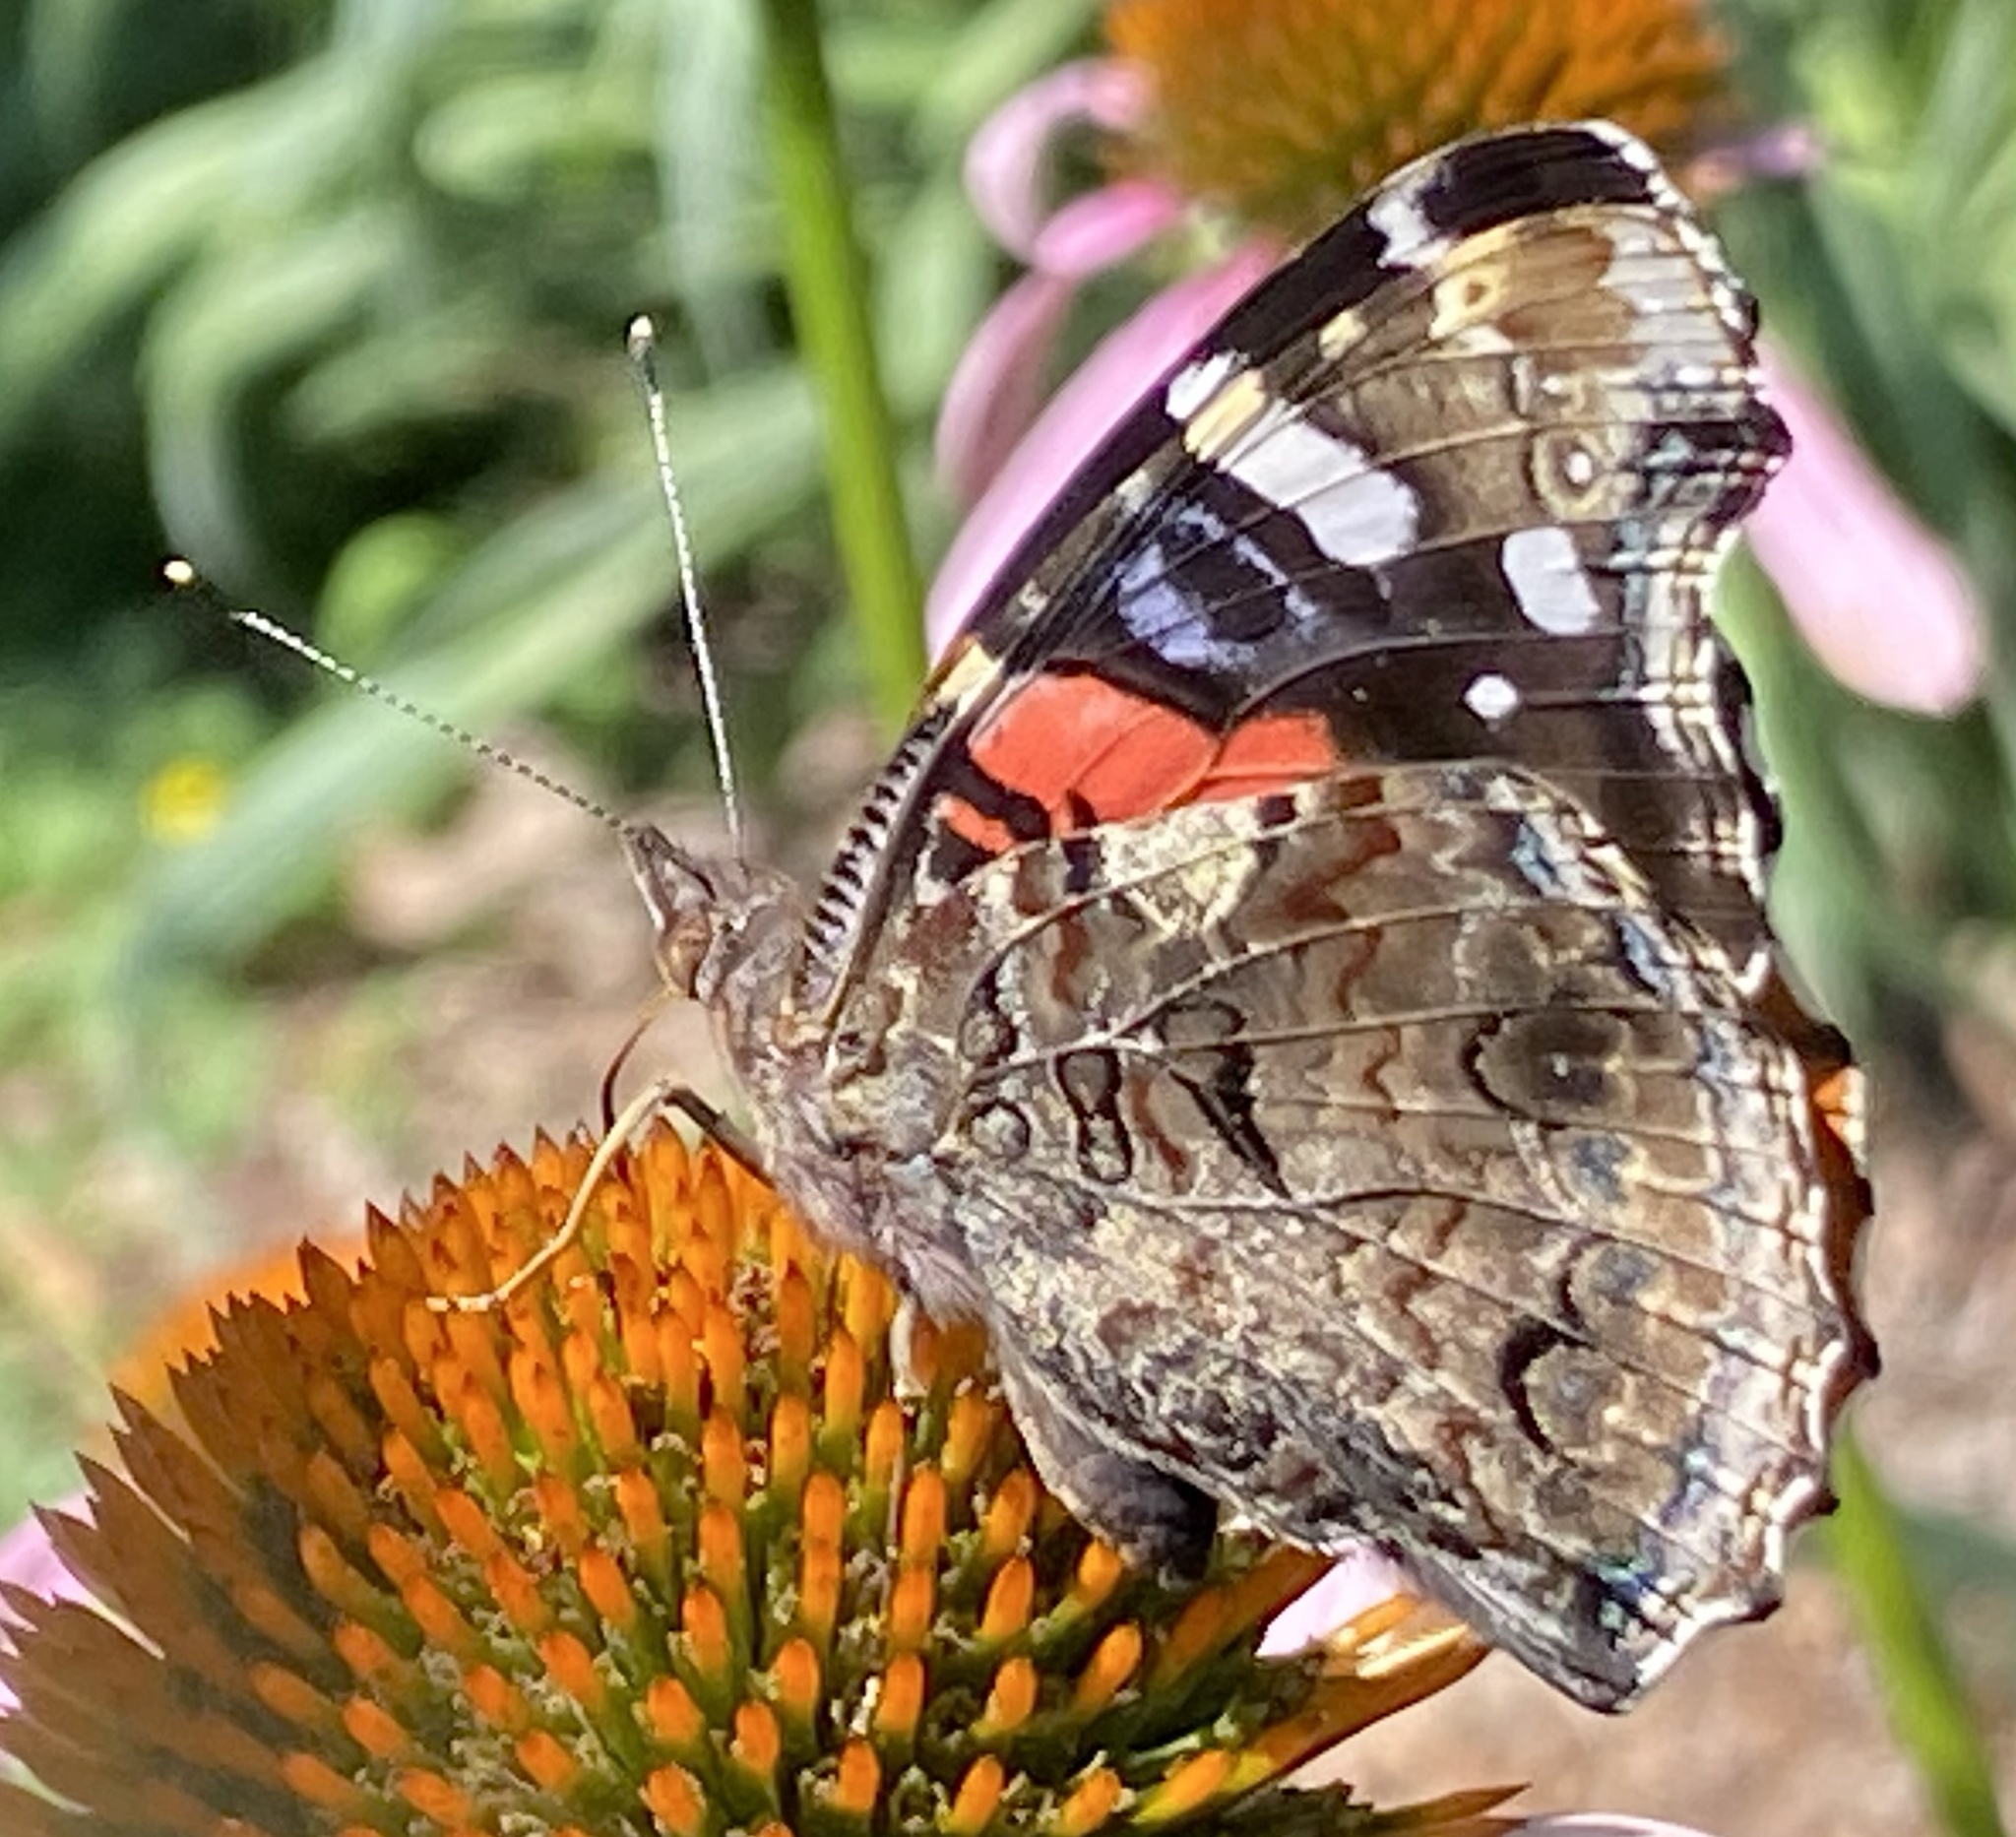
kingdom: Animalia
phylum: Arthropoda
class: Insecta
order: Lepidoptera
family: Nymphalidae
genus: Vanessa
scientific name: Vanessa atalanta
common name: Red admiral
